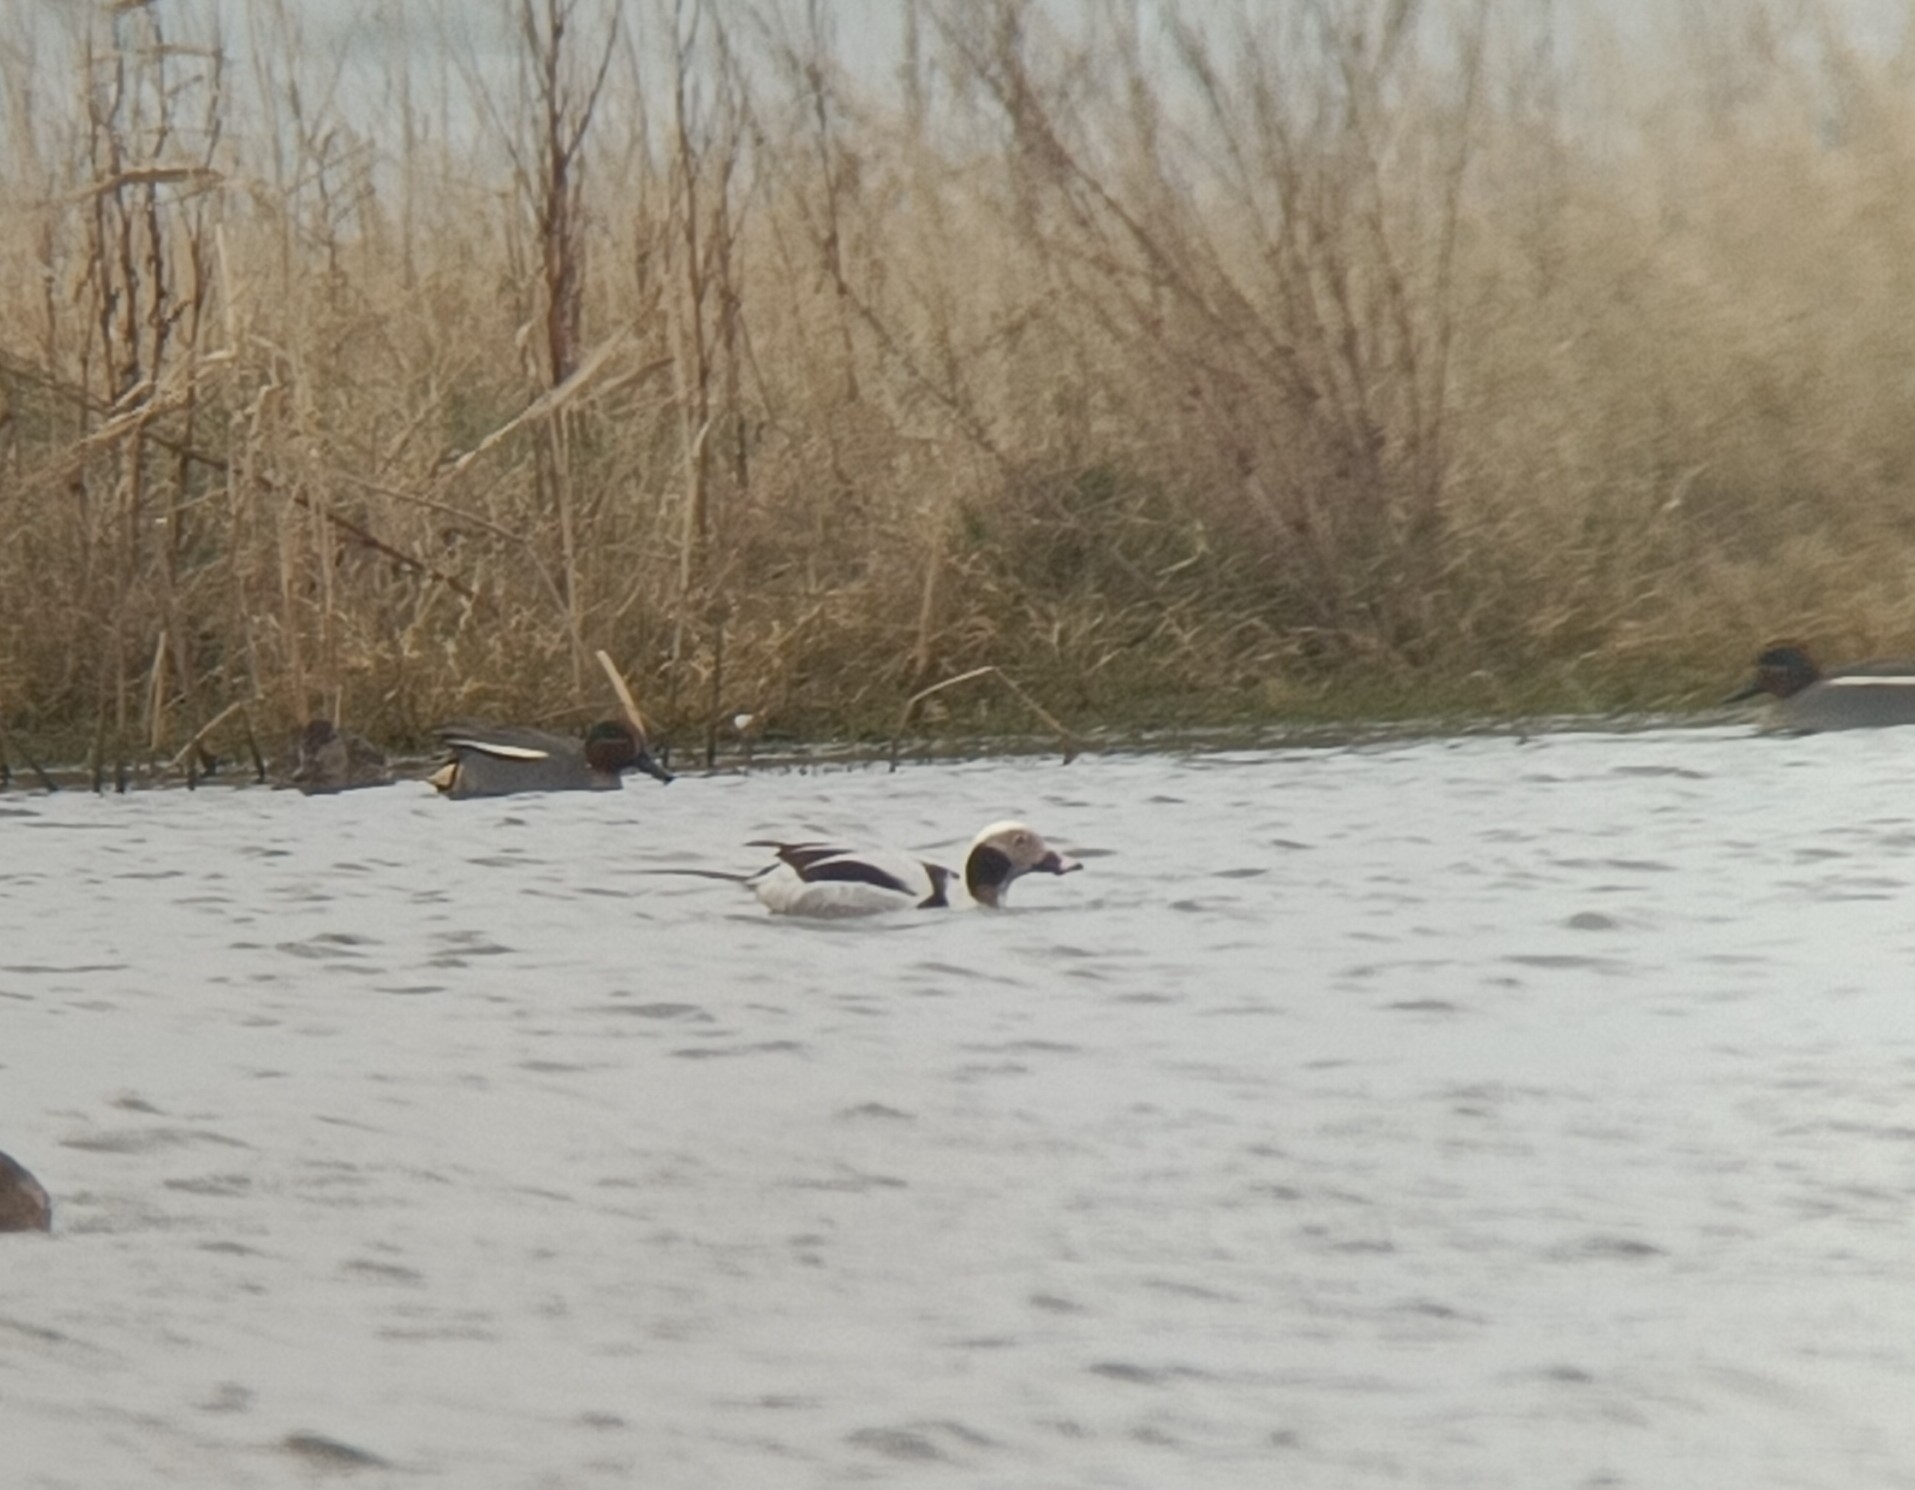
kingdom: Animalia
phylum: Chordata
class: Aves
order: Anseriformes
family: Anatidae
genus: Clangula
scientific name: Clangula hyemalis
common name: Long-tailed duck
